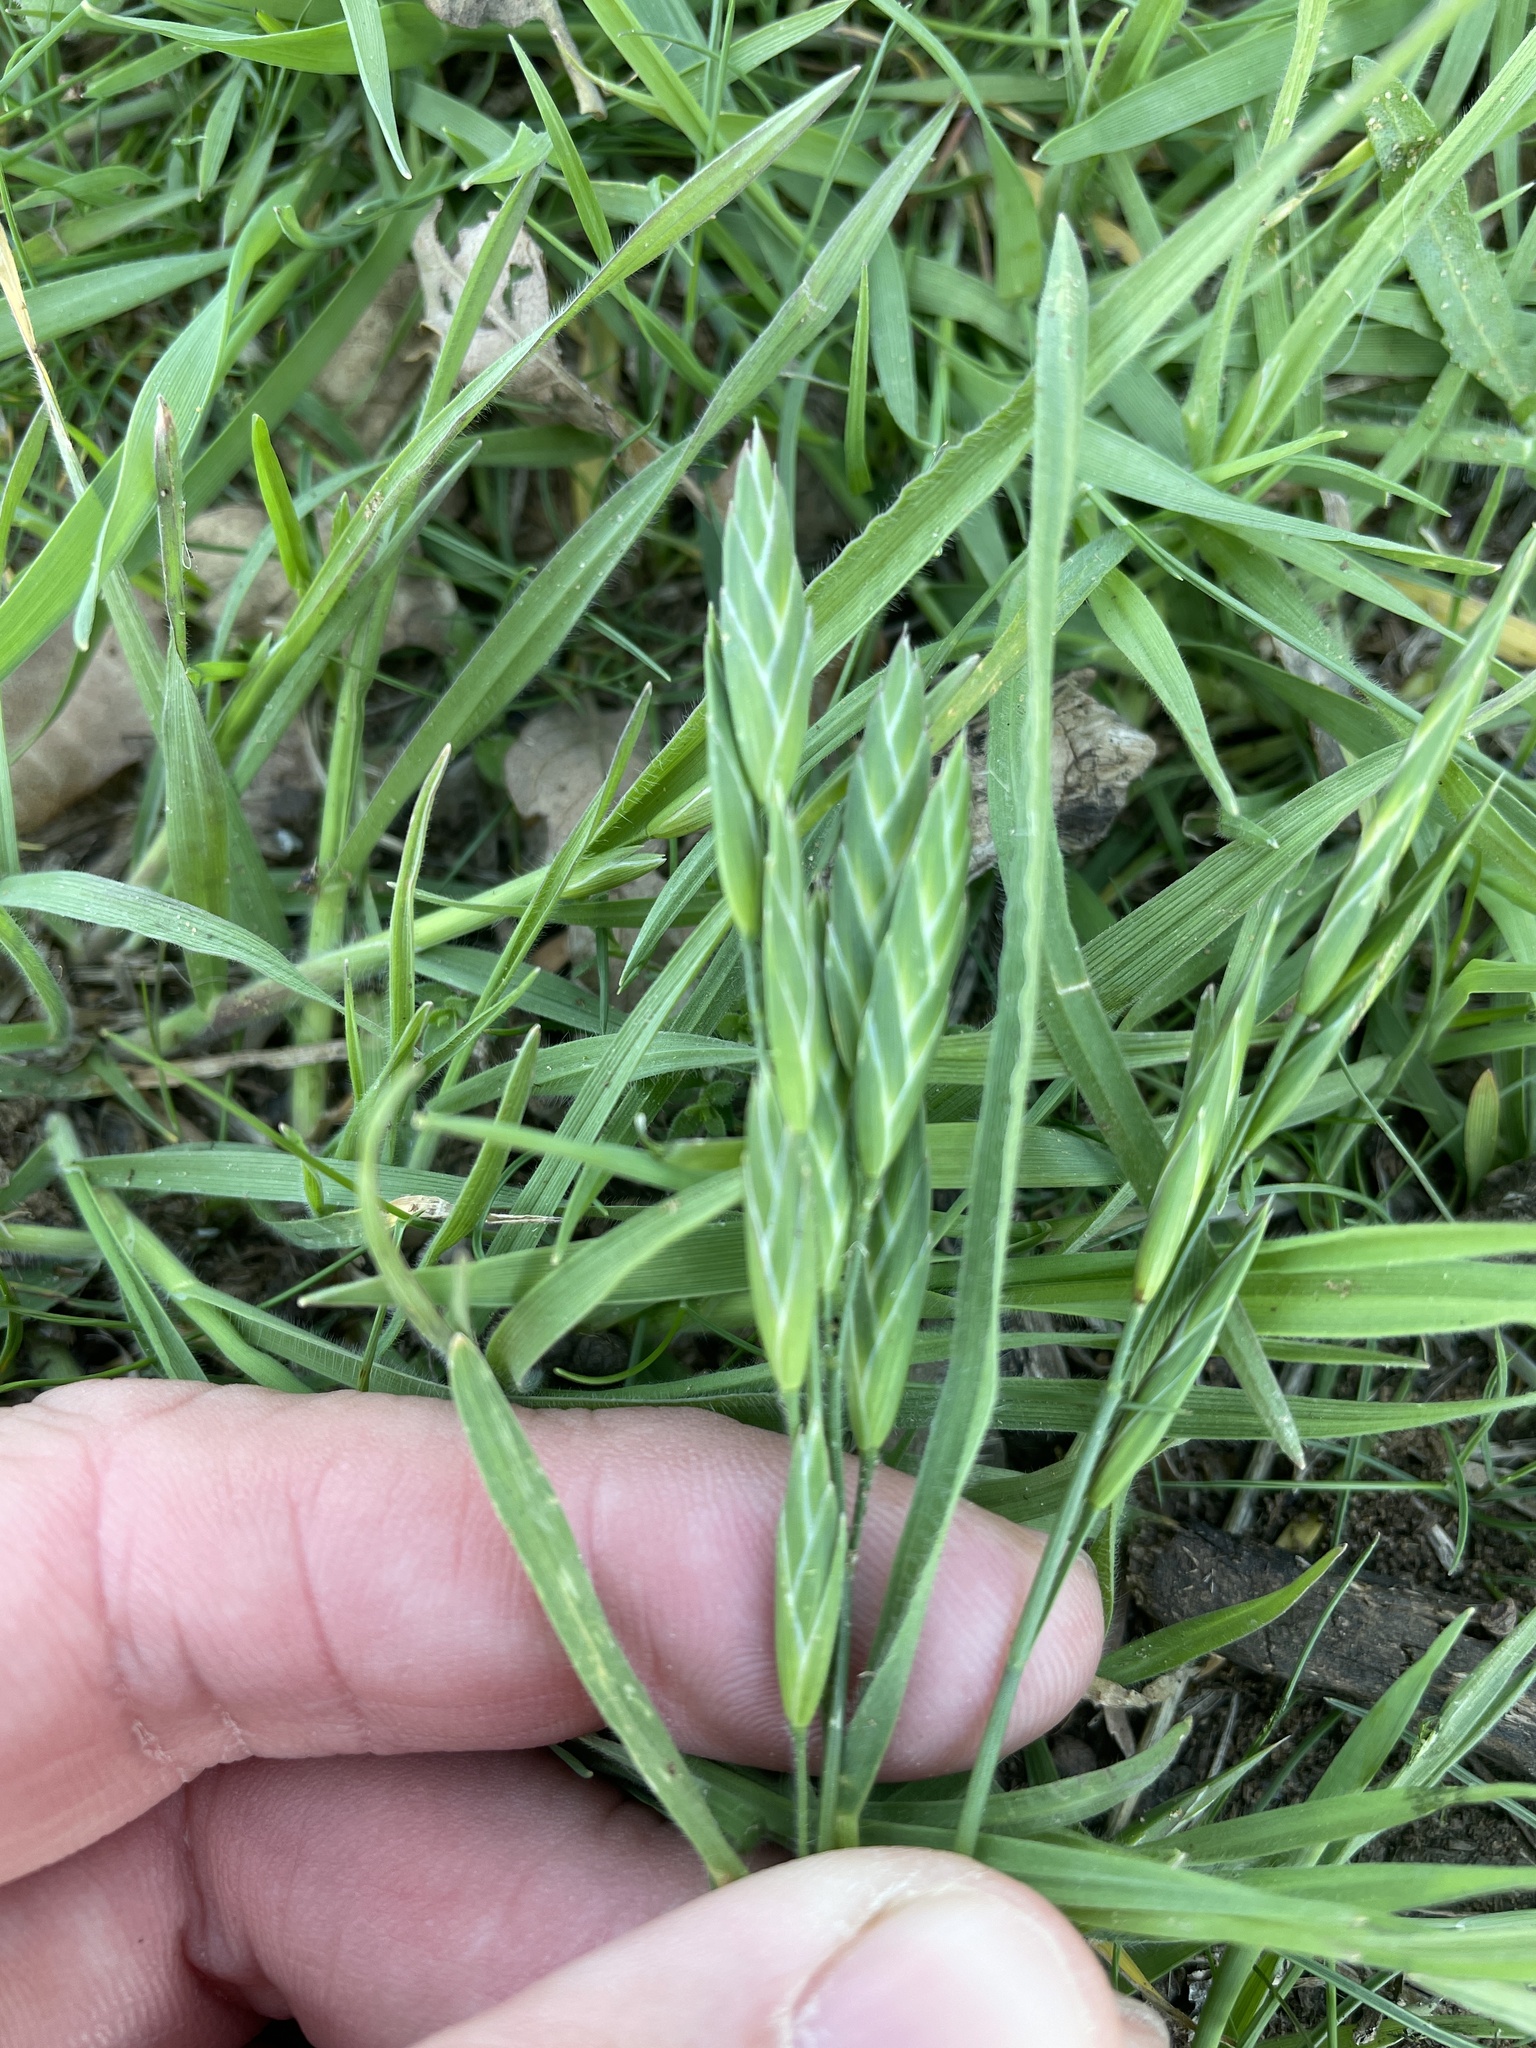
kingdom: Plantae
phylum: Tracheophyta
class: Liliopsida
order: Poales
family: Poaceae
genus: Bromus
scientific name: Bromus catharticus
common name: Rescuegrass
